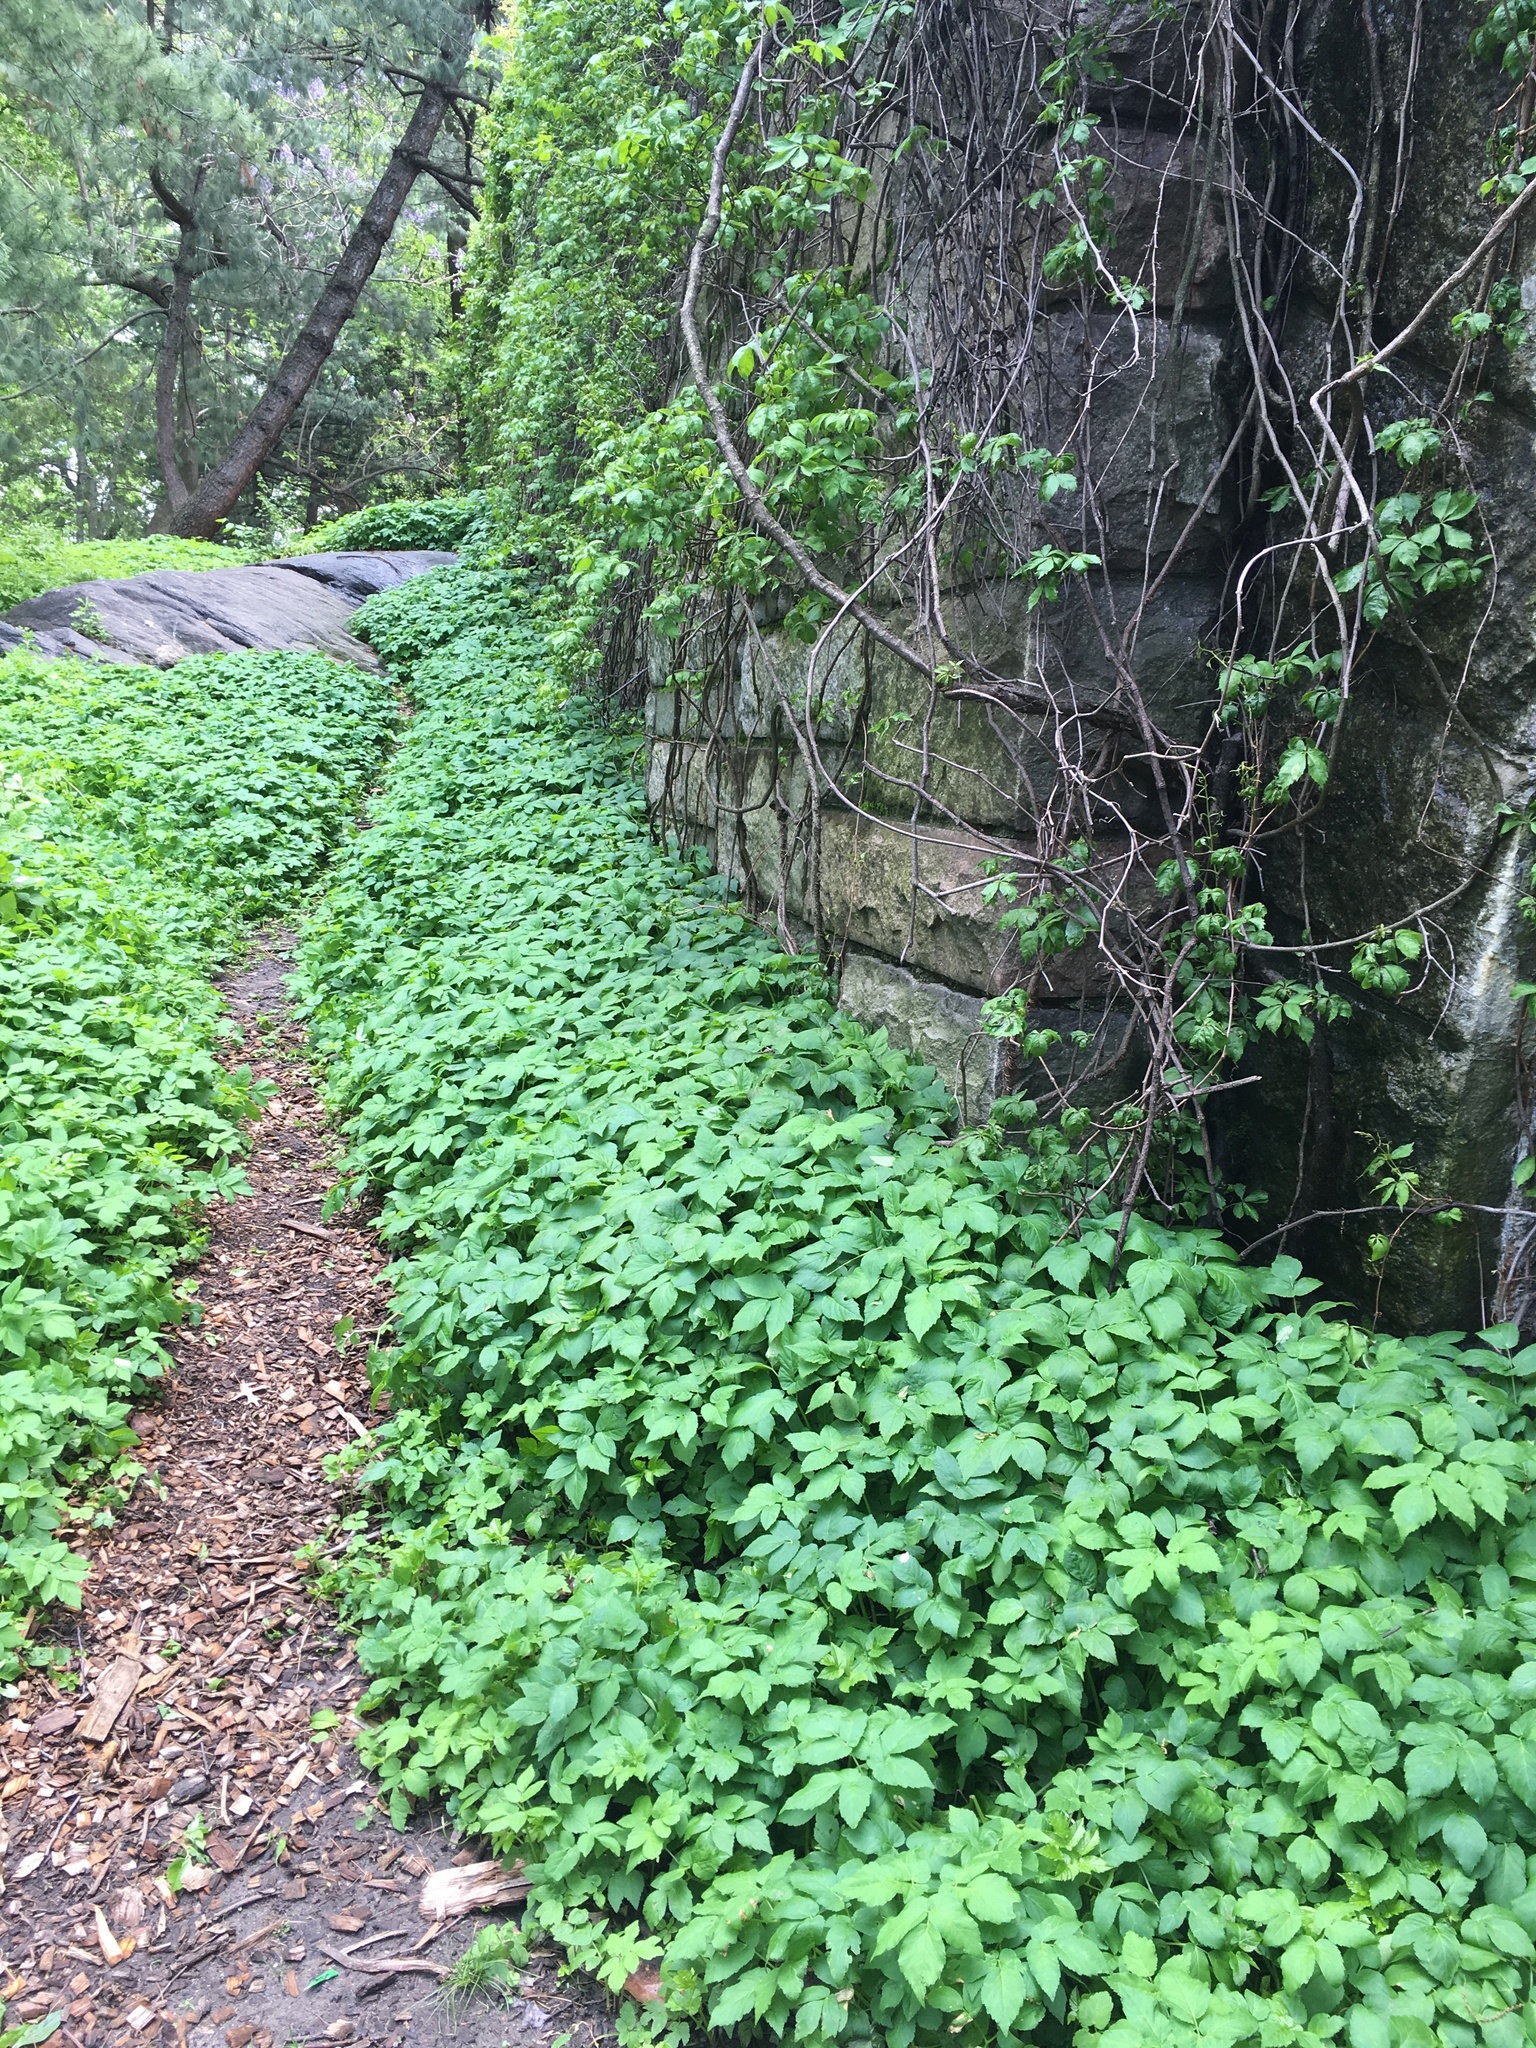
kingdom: Plantae
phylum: Tracheophyta
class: Magnoliopsida
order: Apiales
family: Apiaceae
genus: Aegopodium
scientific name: Aegopodium podagraria
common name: Ground-elder
